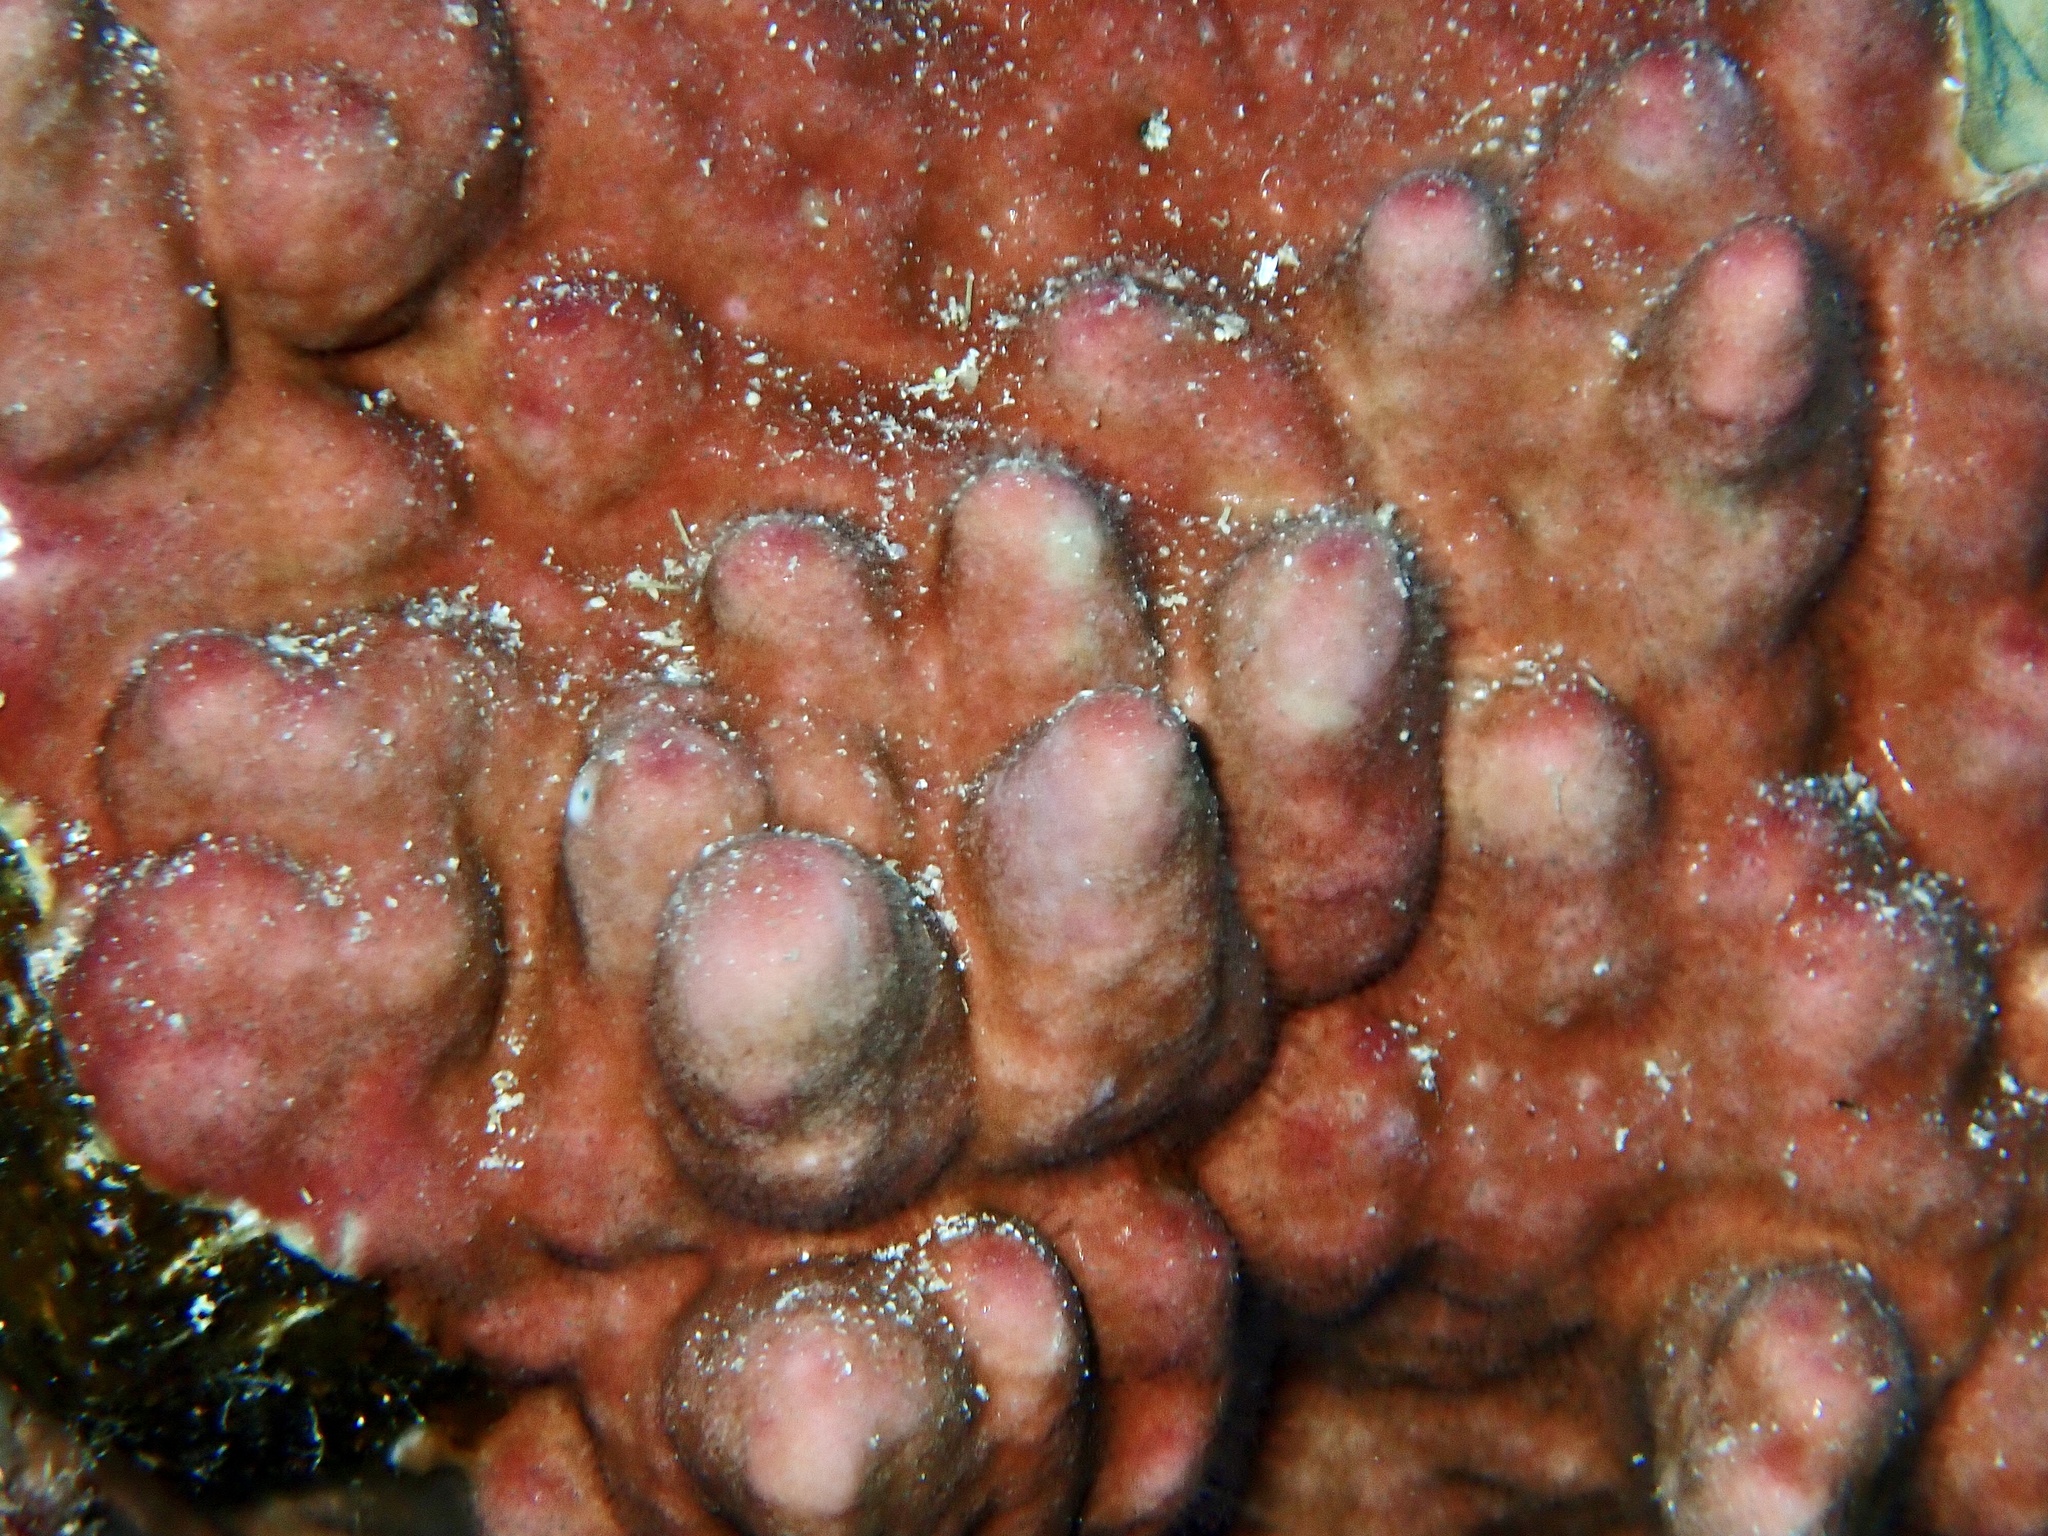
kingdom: Animalia
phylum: Cnidaria
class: Hydrozoa
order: Anthoathecata
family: Milleporidae
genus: Millepora
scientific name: Millepora exaesa
